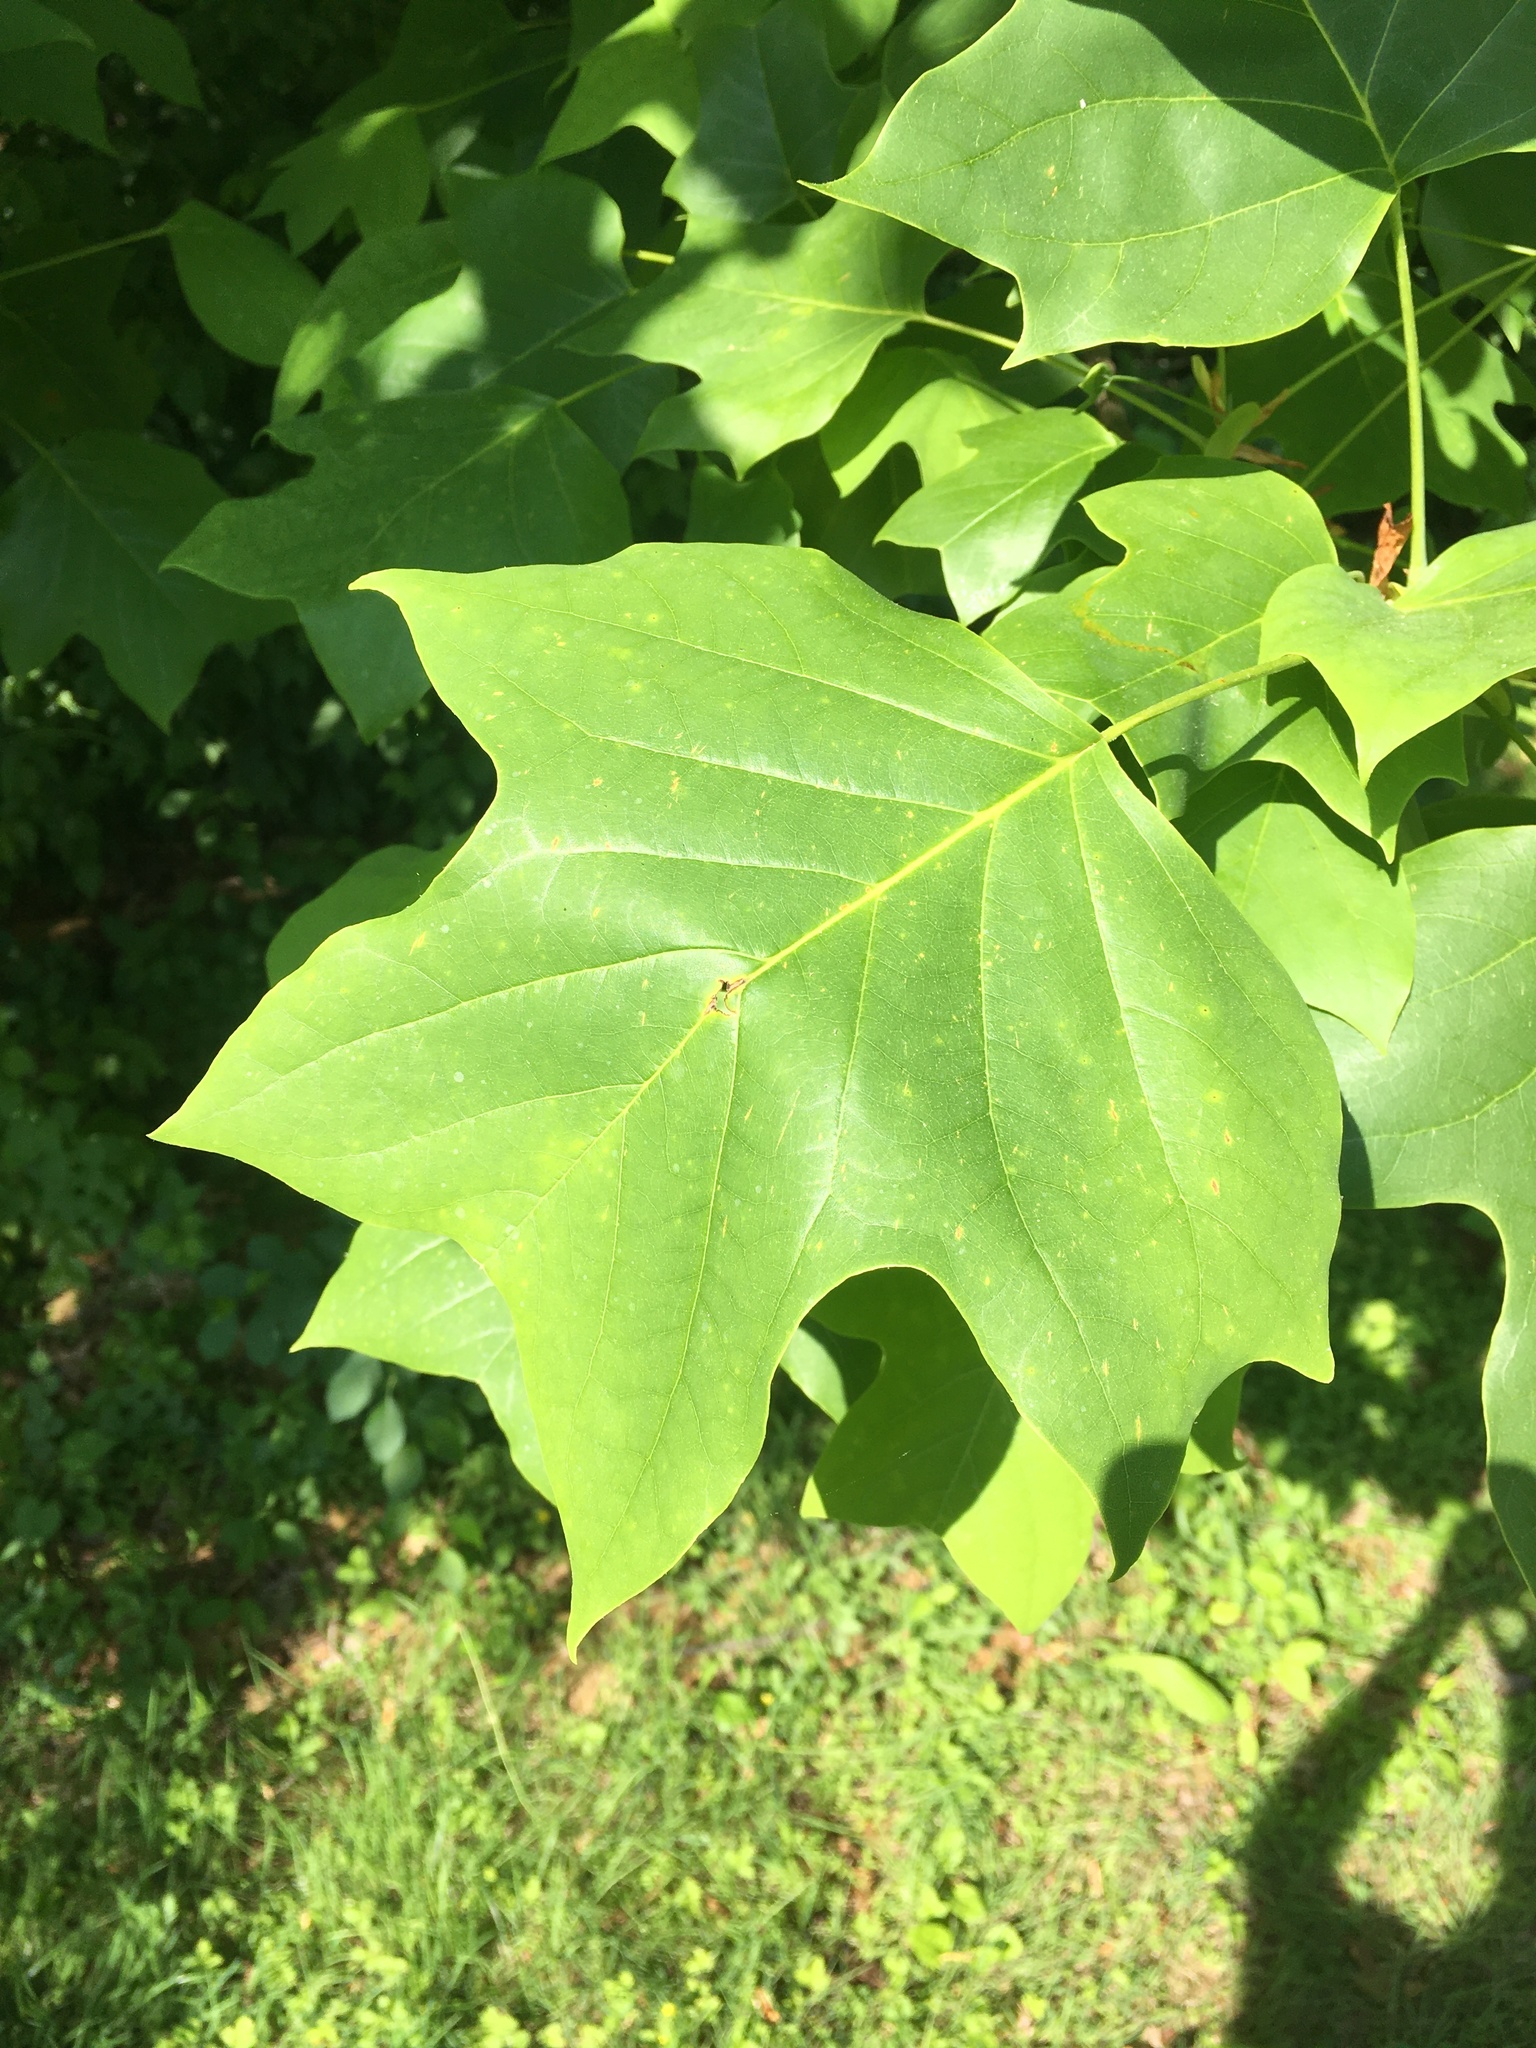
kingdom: Plantae
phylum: Tracheophyta
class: Magnoliopsida
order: Magnoliales
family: Magnoliaceae
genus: Liriodendron
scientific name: Liriodendron tulipifera
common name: Tulip tree
